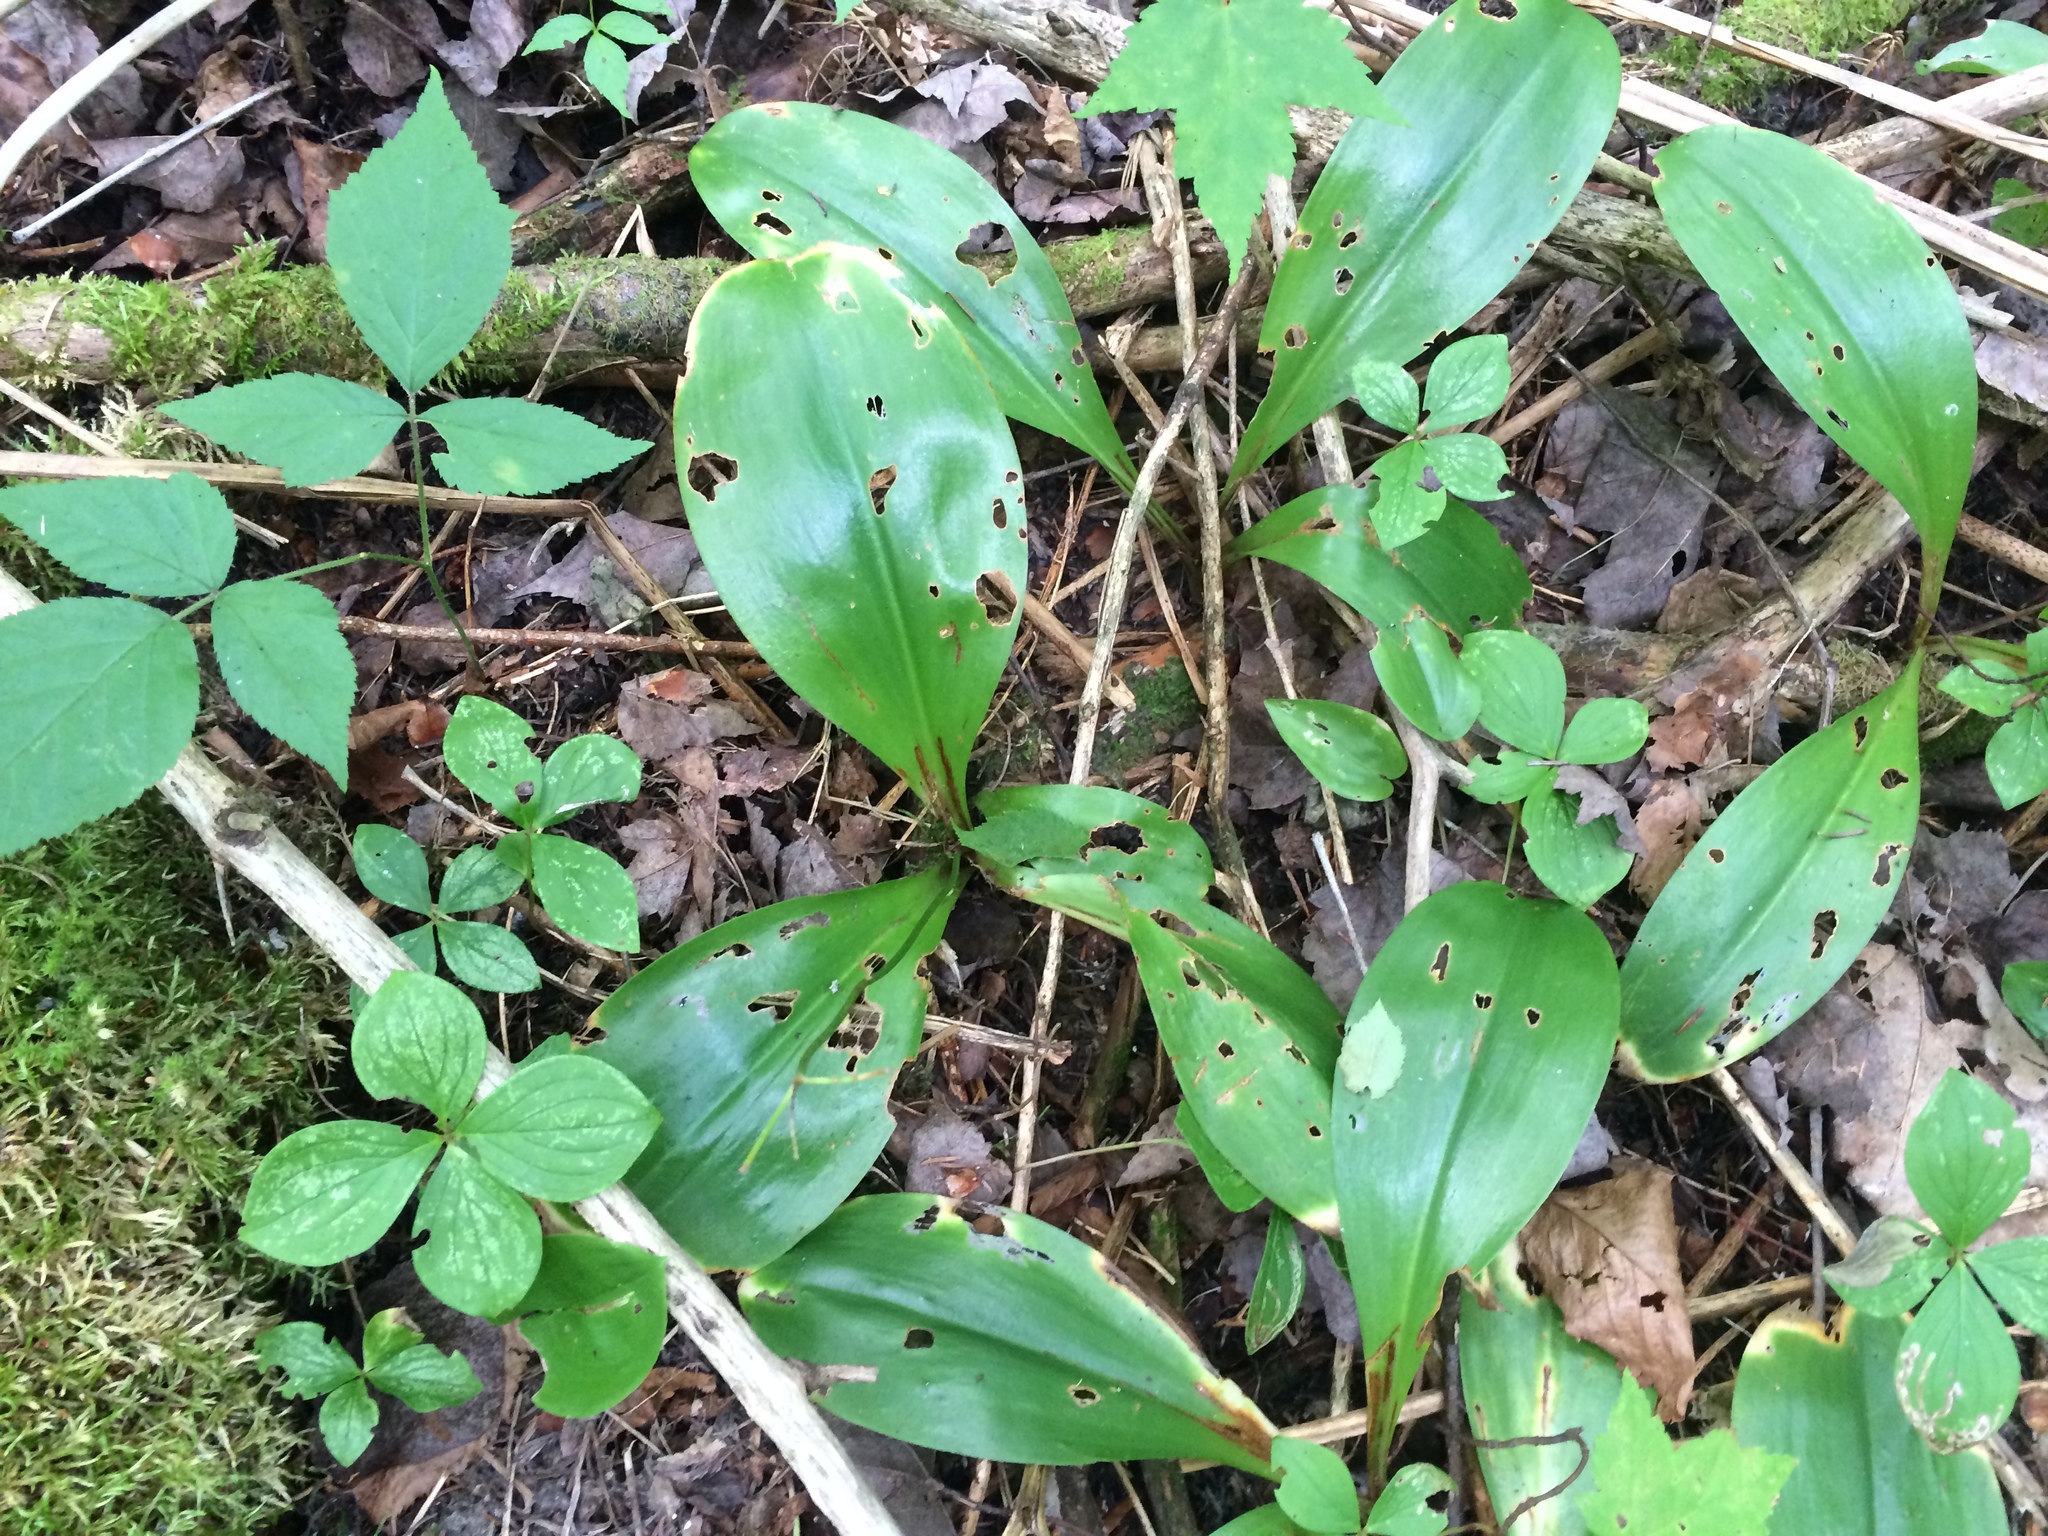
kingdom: Plantae
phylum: Tracheophyta
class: Liliopsida
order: Liliales
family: Liliaceae
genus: Clintonia
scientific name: Clintonia borealis
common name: Yellow clintonia
